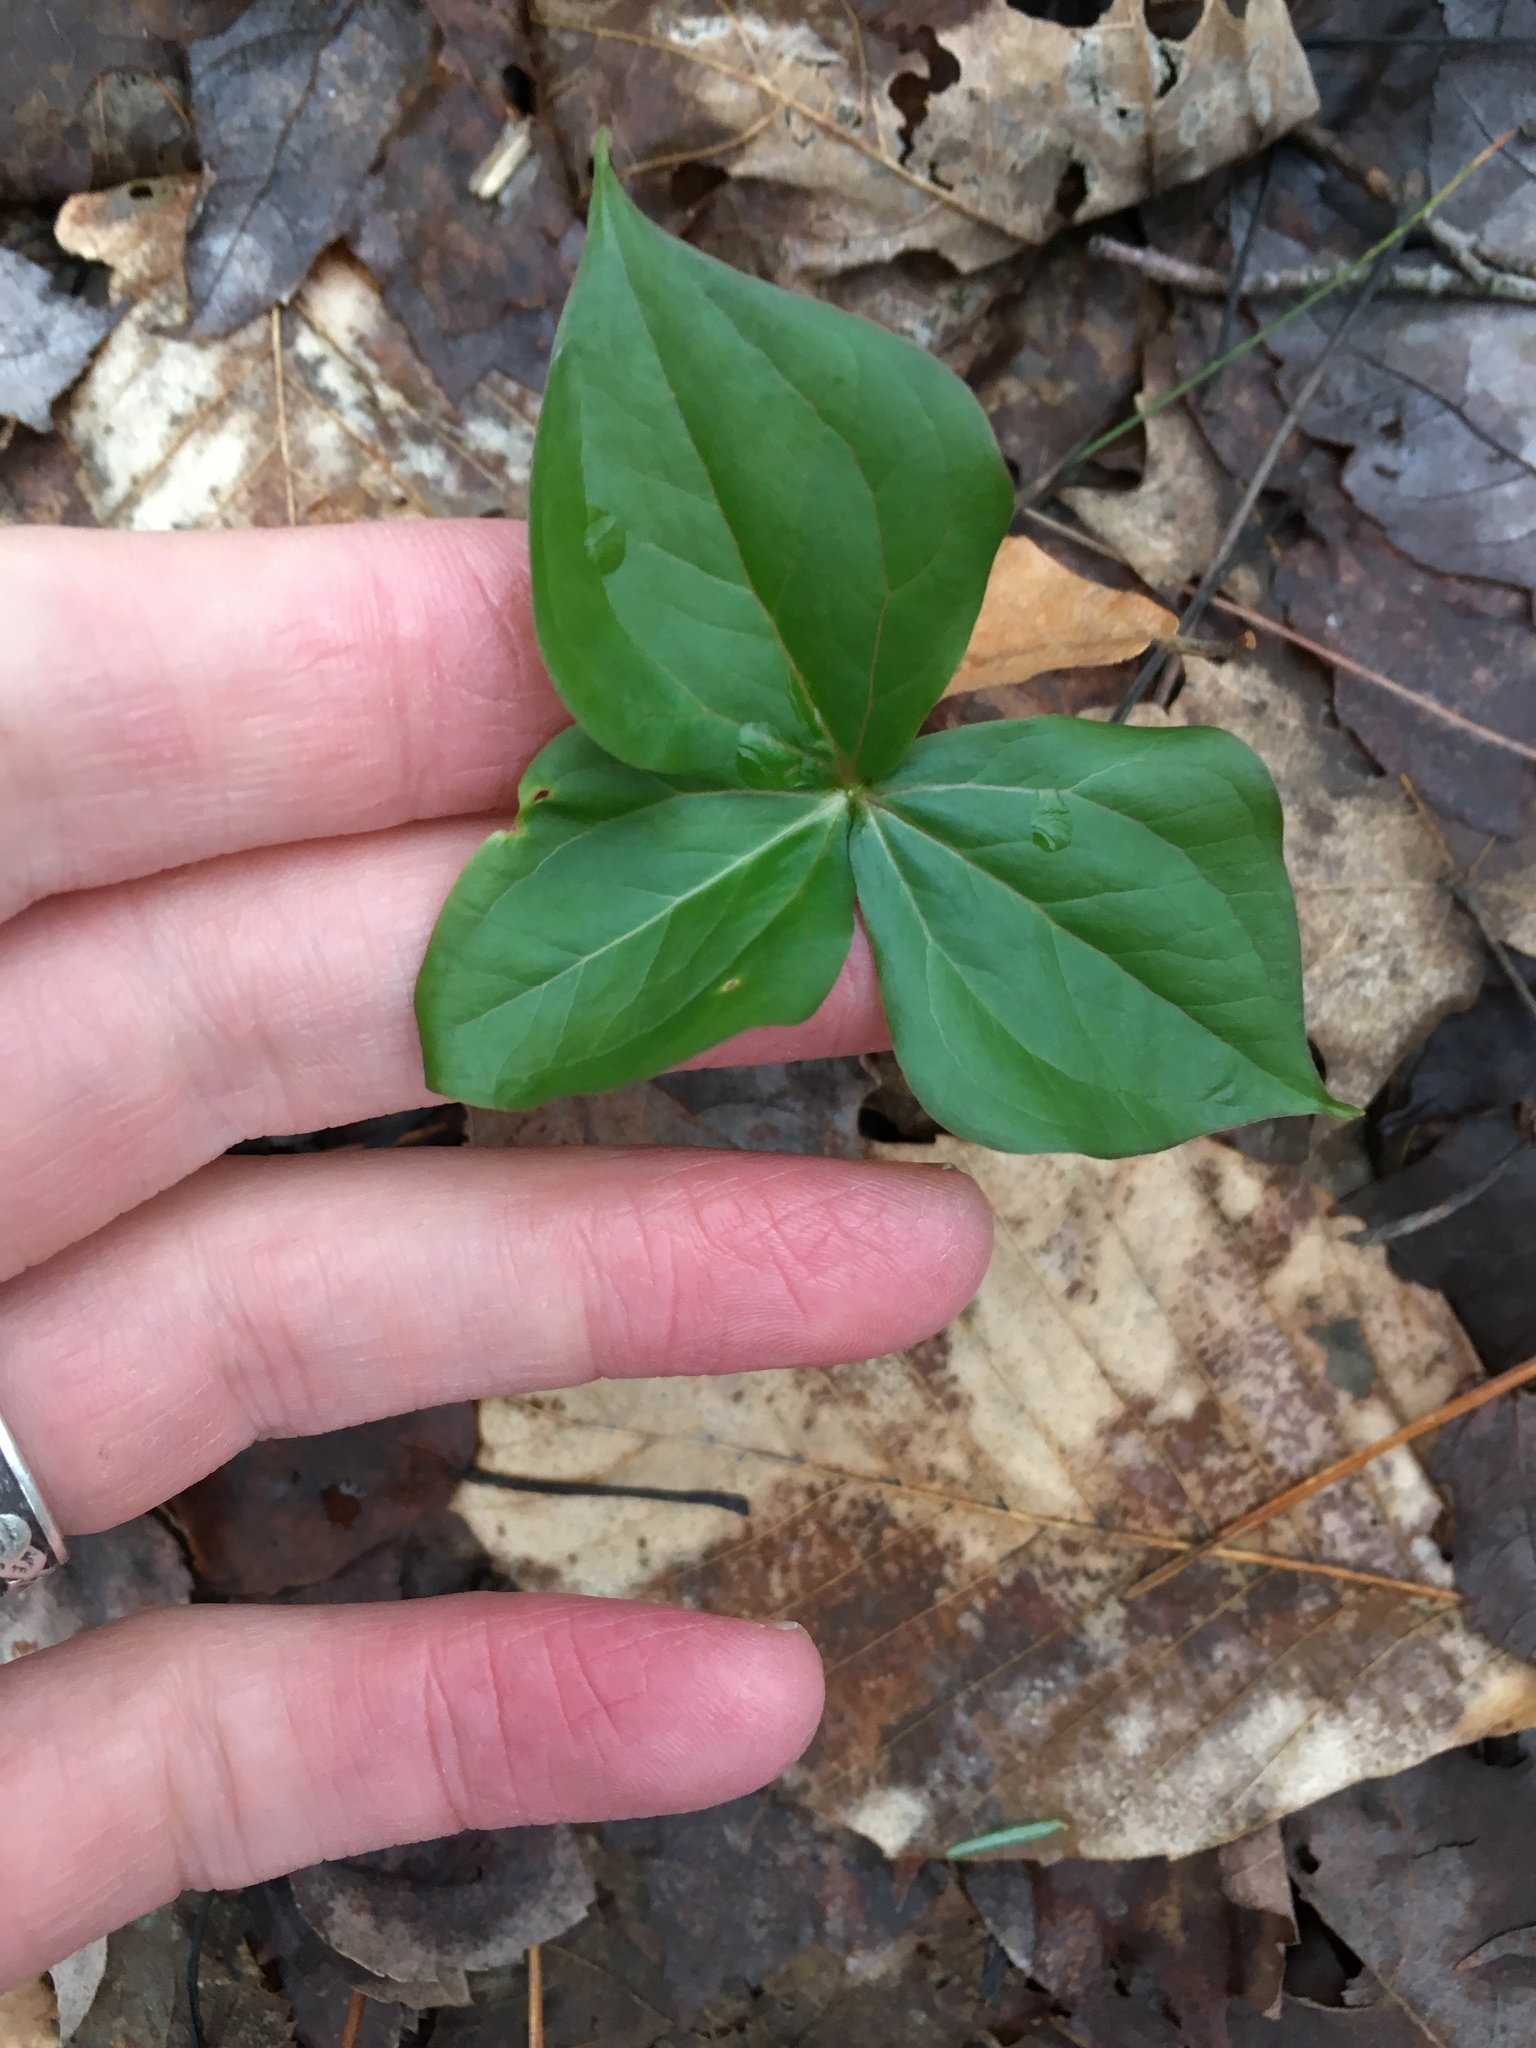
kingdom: Plantae
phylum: Tracheophyta
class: Liliopsida
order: Liliales
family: Melanthiaceae
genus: Trillium
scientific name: Trillium erectum
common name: Purple trillium
